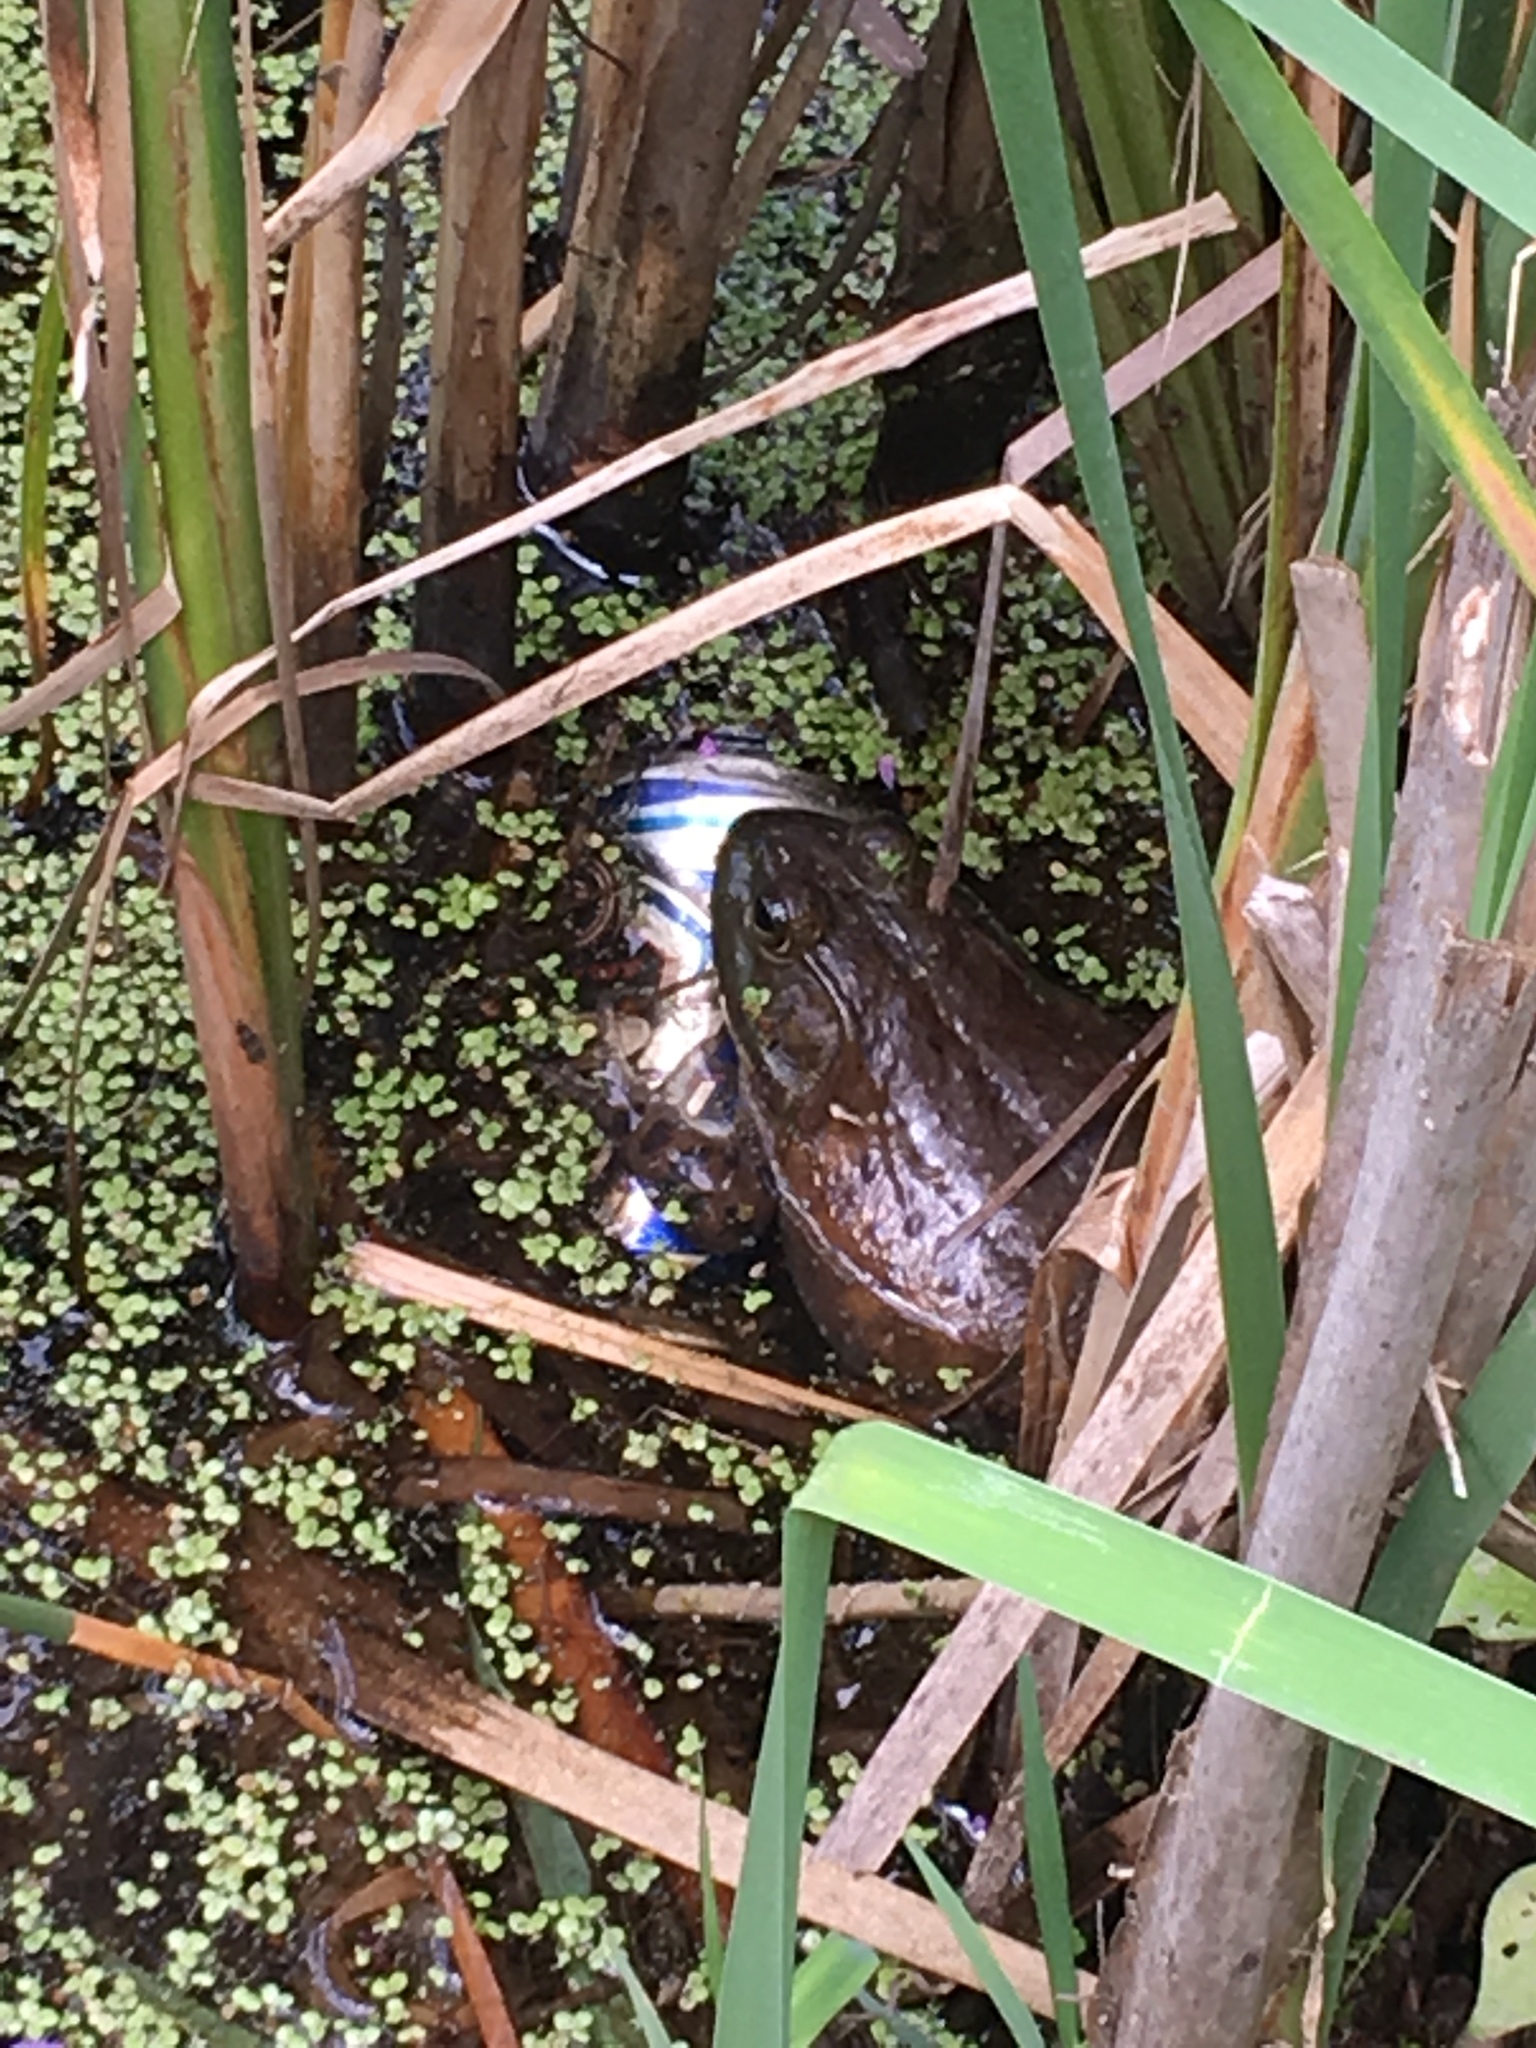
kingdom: Animalia
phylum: Chordata
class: Amphibia
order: Anura
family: Ranidae
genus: Lithobates
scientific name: Lithobates catesbeianus
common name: American bullfrog
